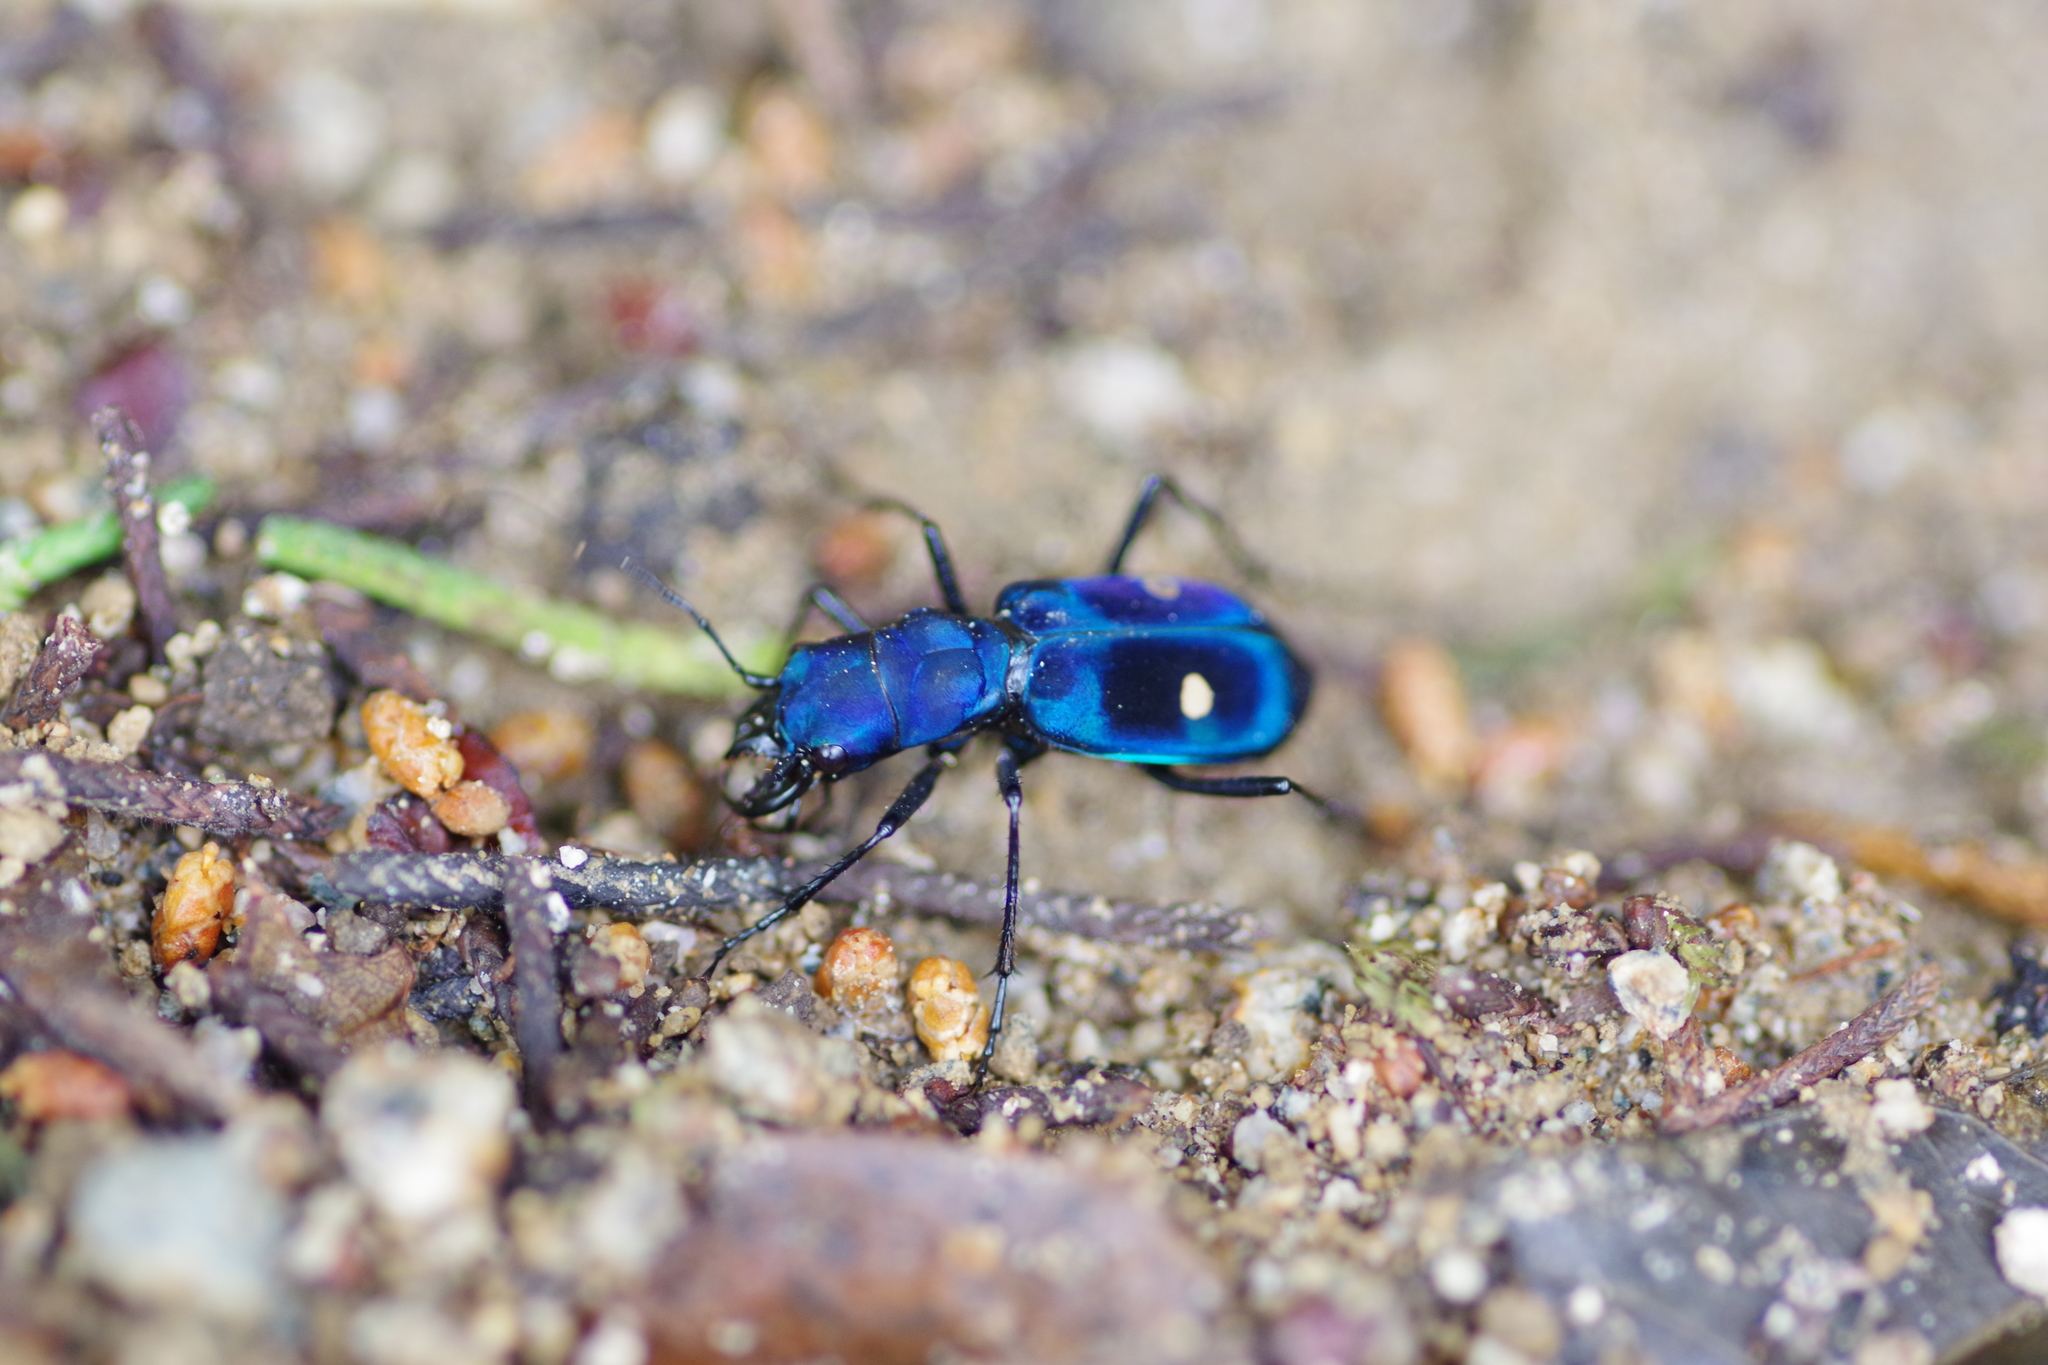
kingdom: Animalia
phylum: Arthropoda
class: Insecta
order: Coleoptera
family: Carabidae
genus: Pseudoxycheila
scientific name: Pseudoxycheila tarsalis
